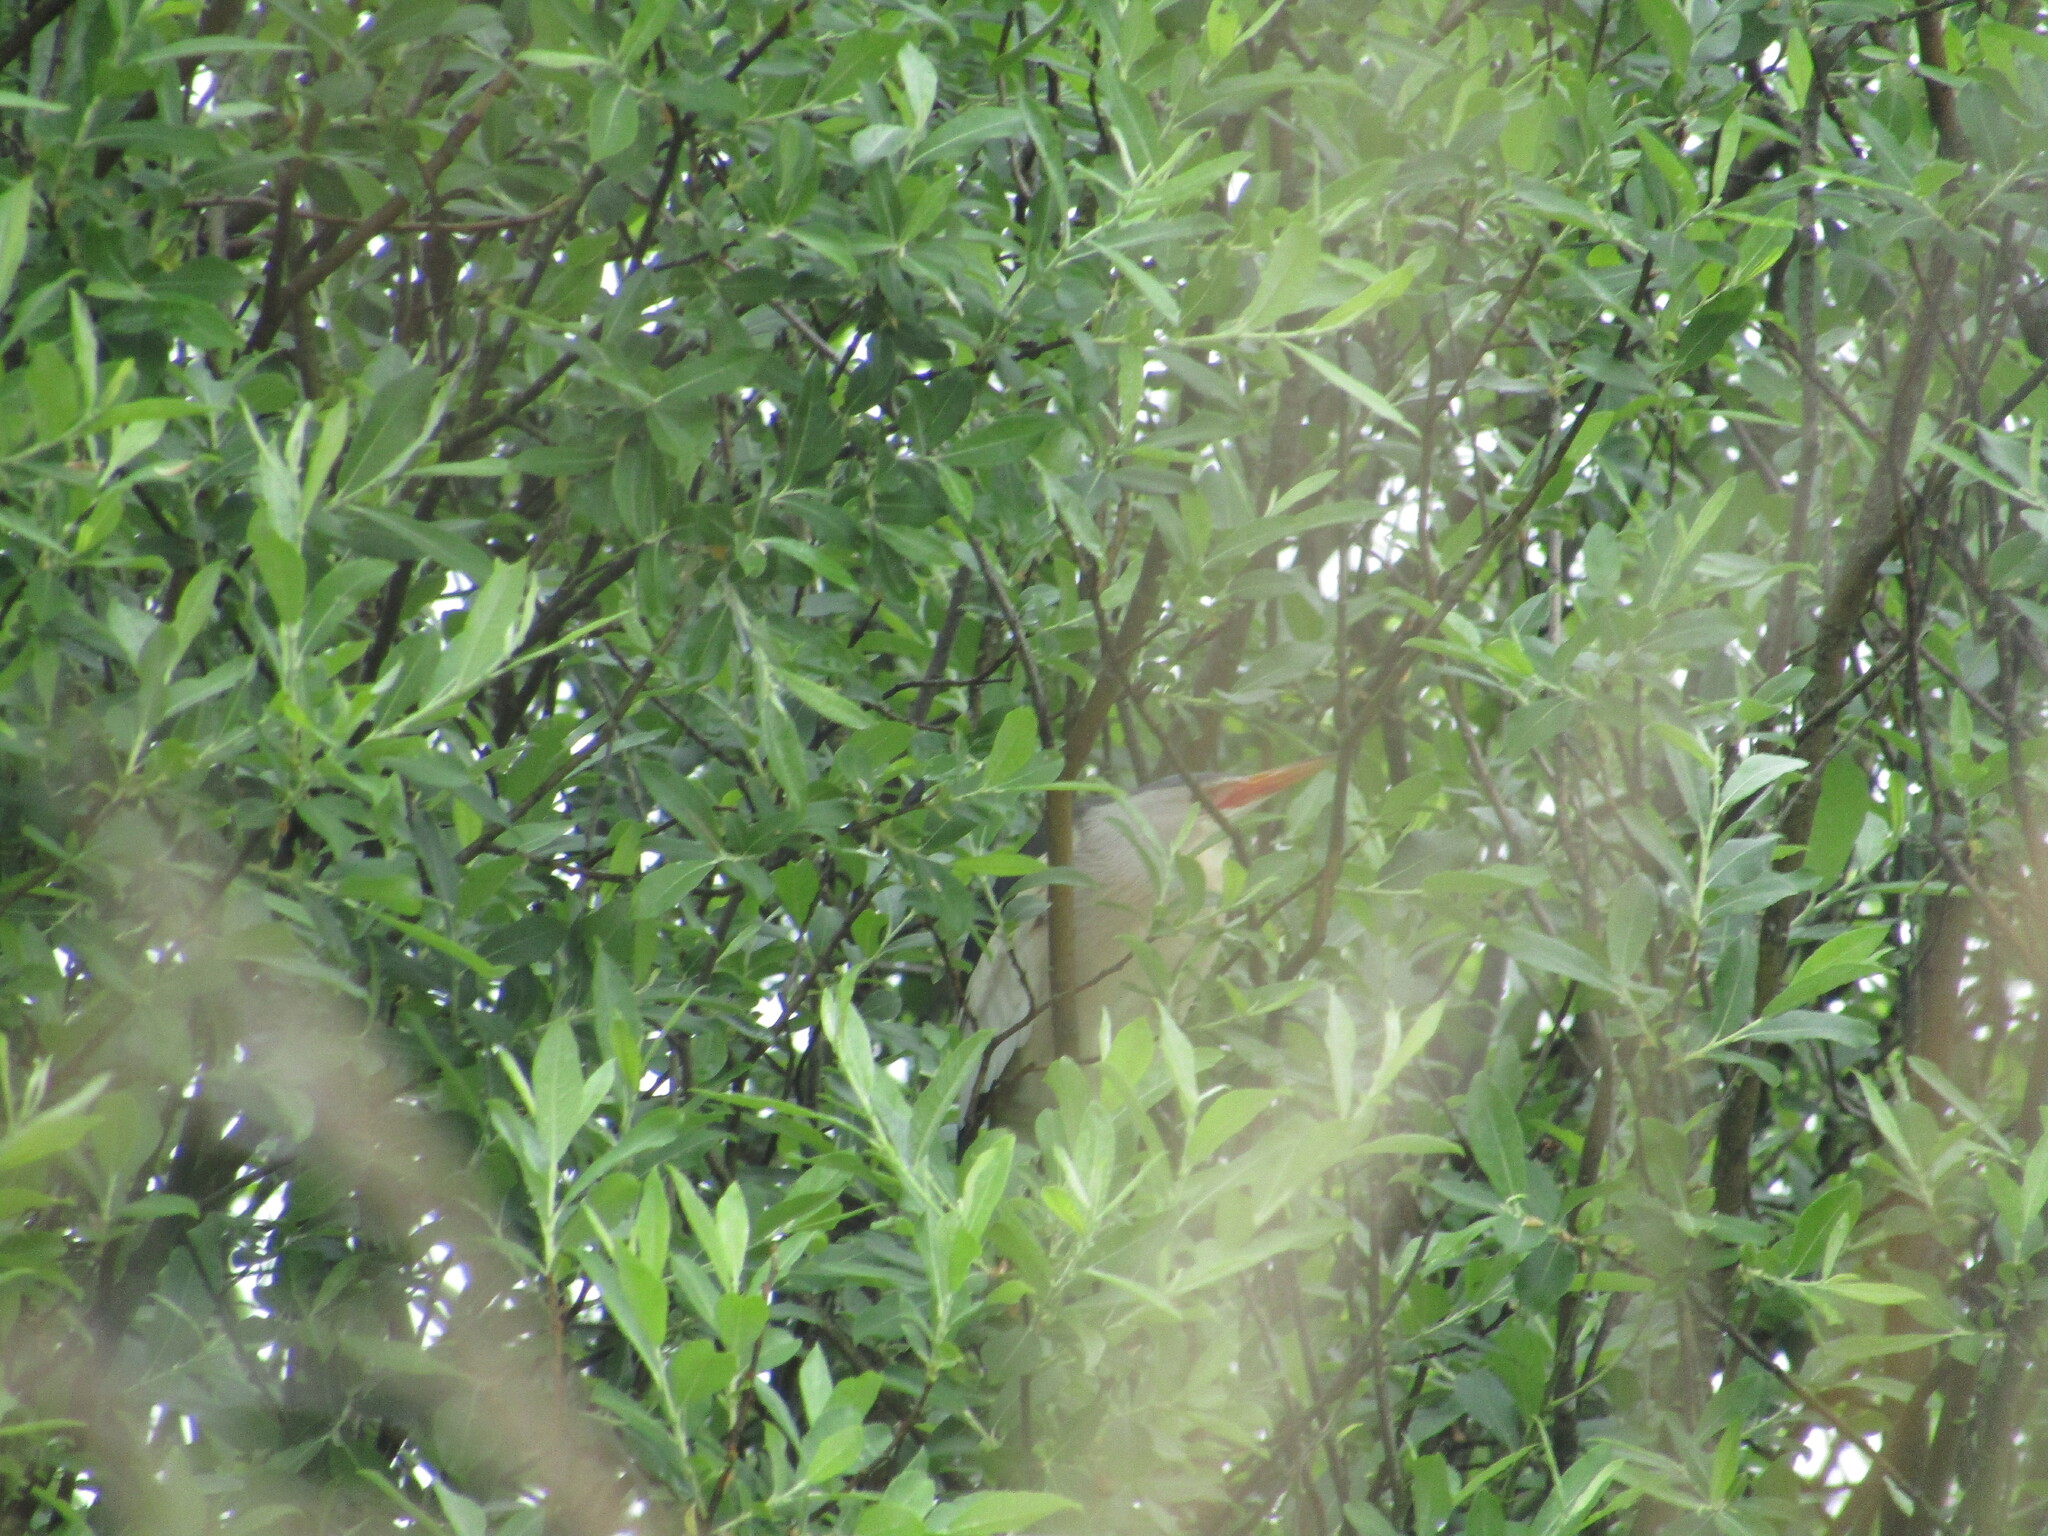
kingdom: Animalia
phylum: Chordata
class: Aves
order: Pelecaniformes
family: Ardeidae
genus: Ixobrychus
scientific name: Ixobrychus minutus
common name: Little bittern
